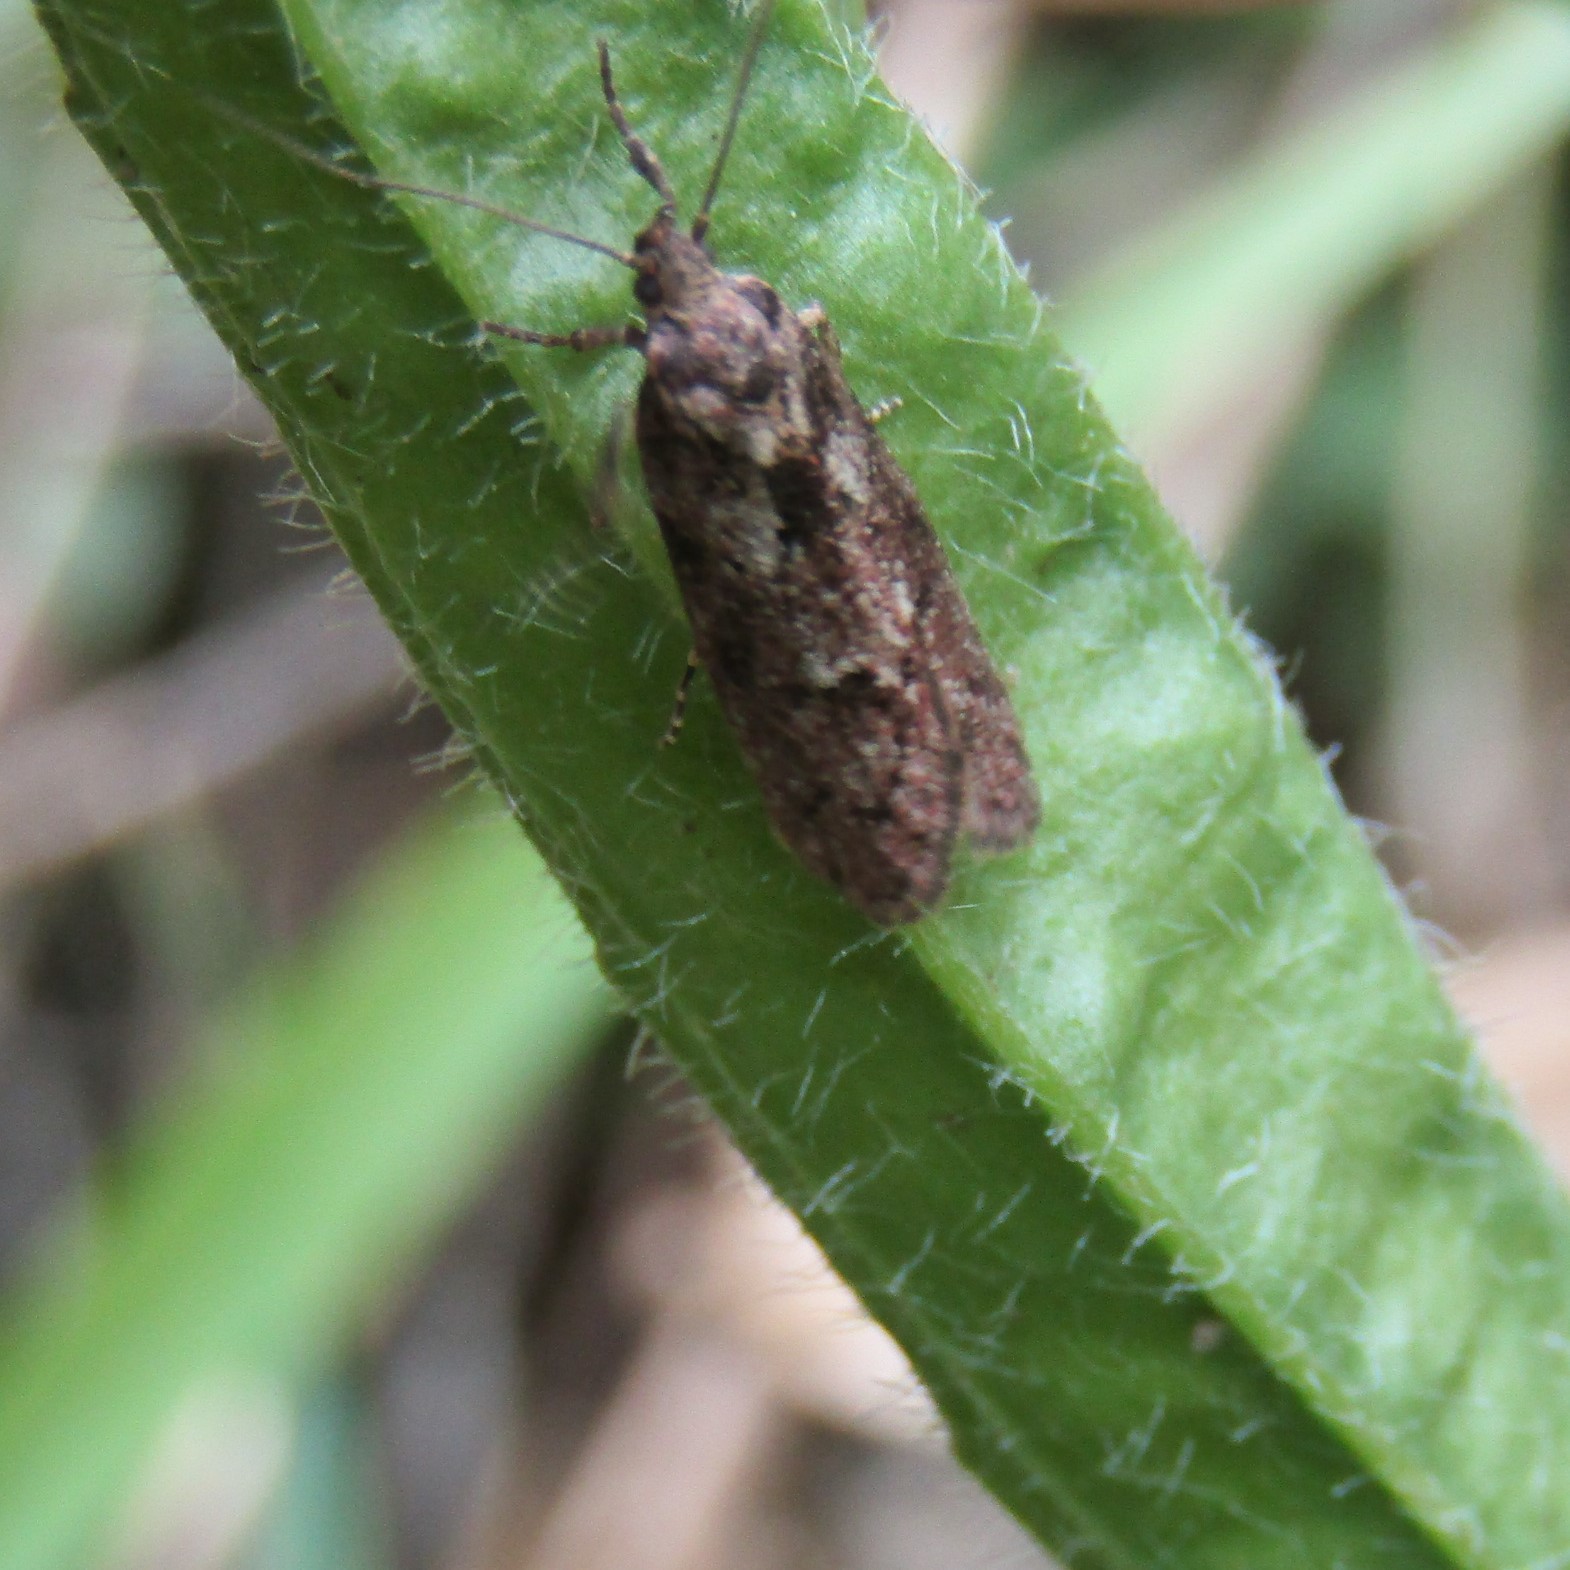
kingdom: Animalia
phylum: Arthropoda
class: Insecta
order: Lepidoptera
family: Oecophoridae
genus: Chersadaula
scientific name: Chersadaula ochrogastra
